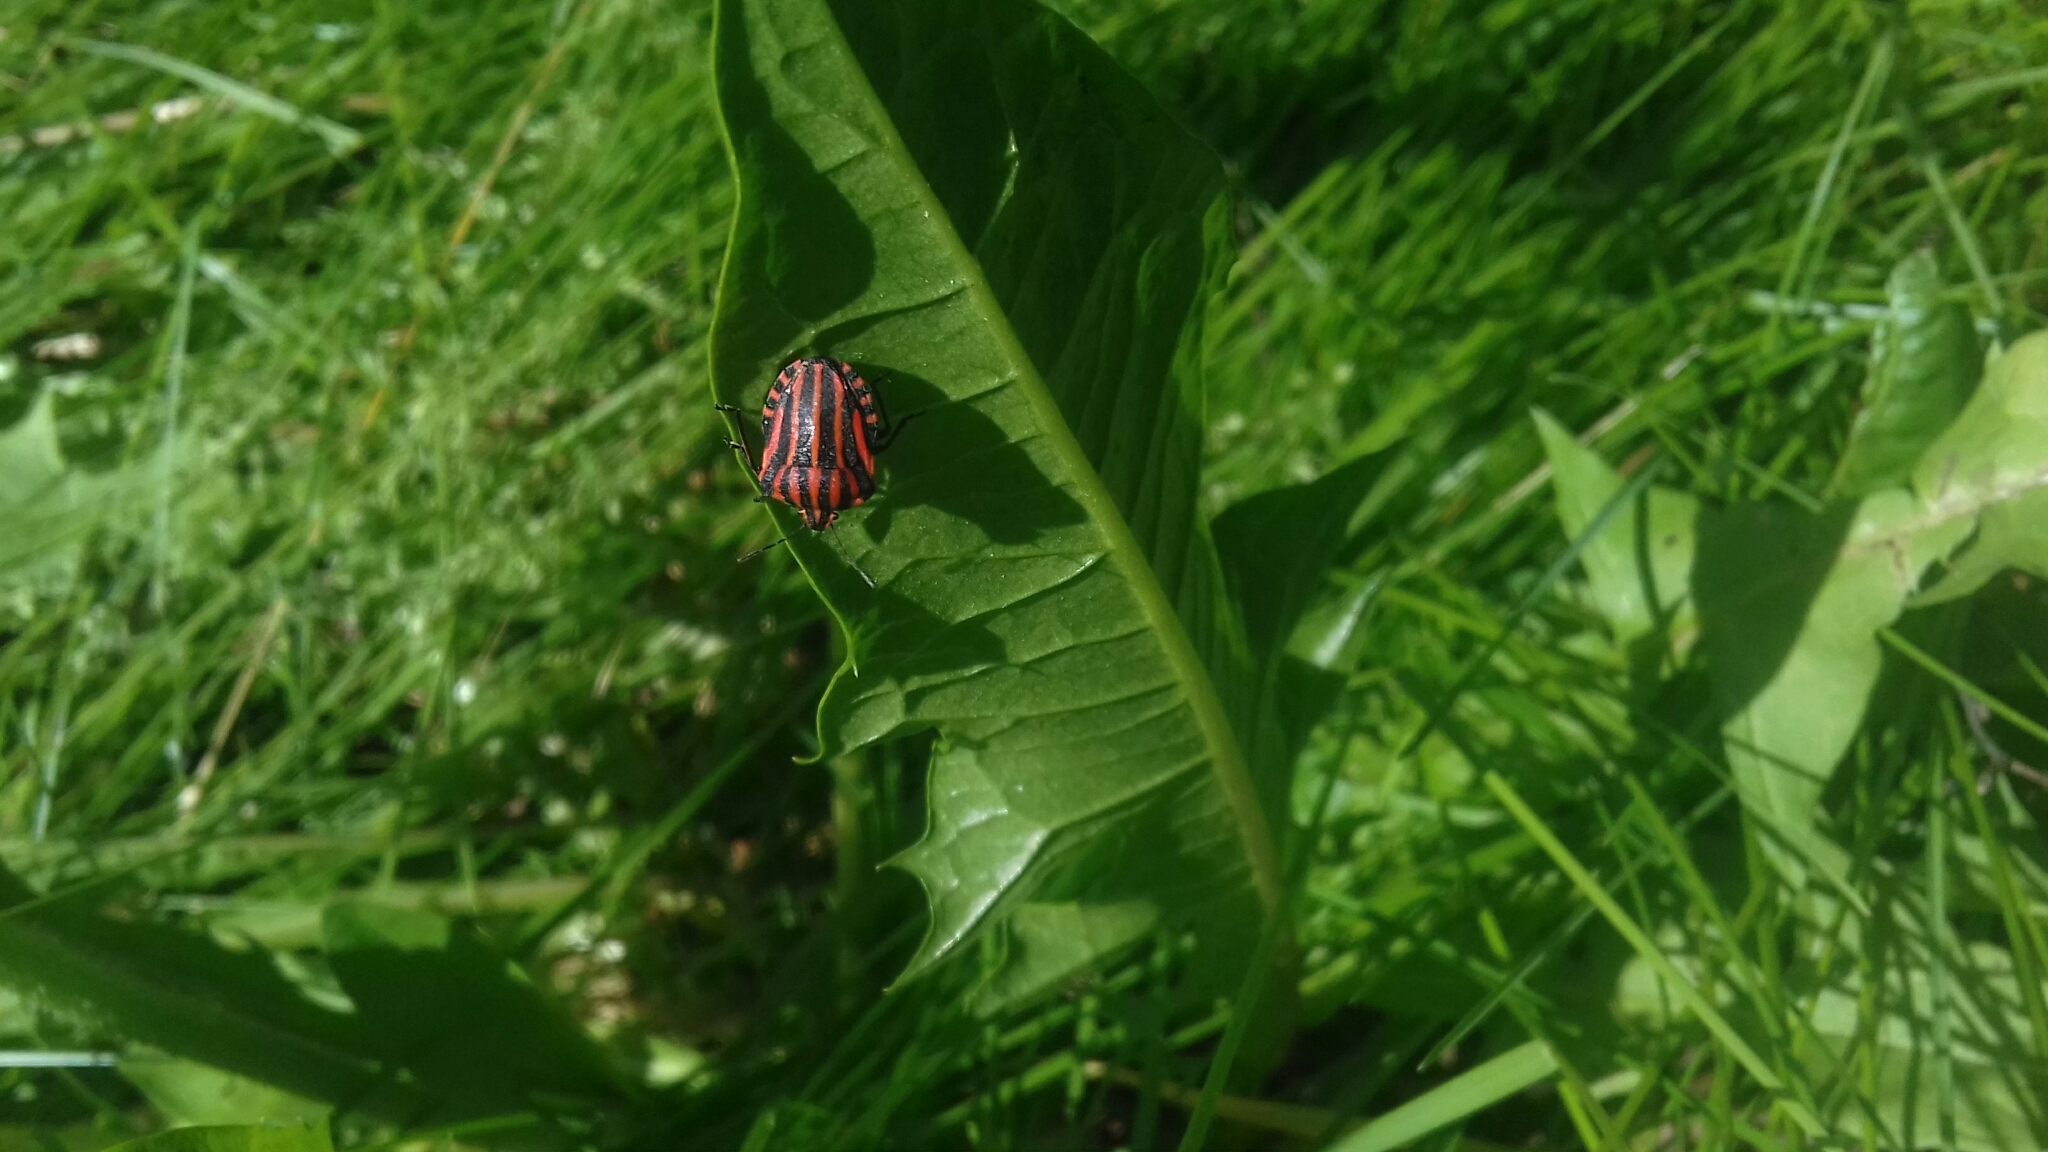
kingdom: Animalia
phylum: Arthropoda
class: Insecta
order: Hemiptera
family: Pentatomidae
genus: Graphosoma
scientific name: Graphosoma italicum
